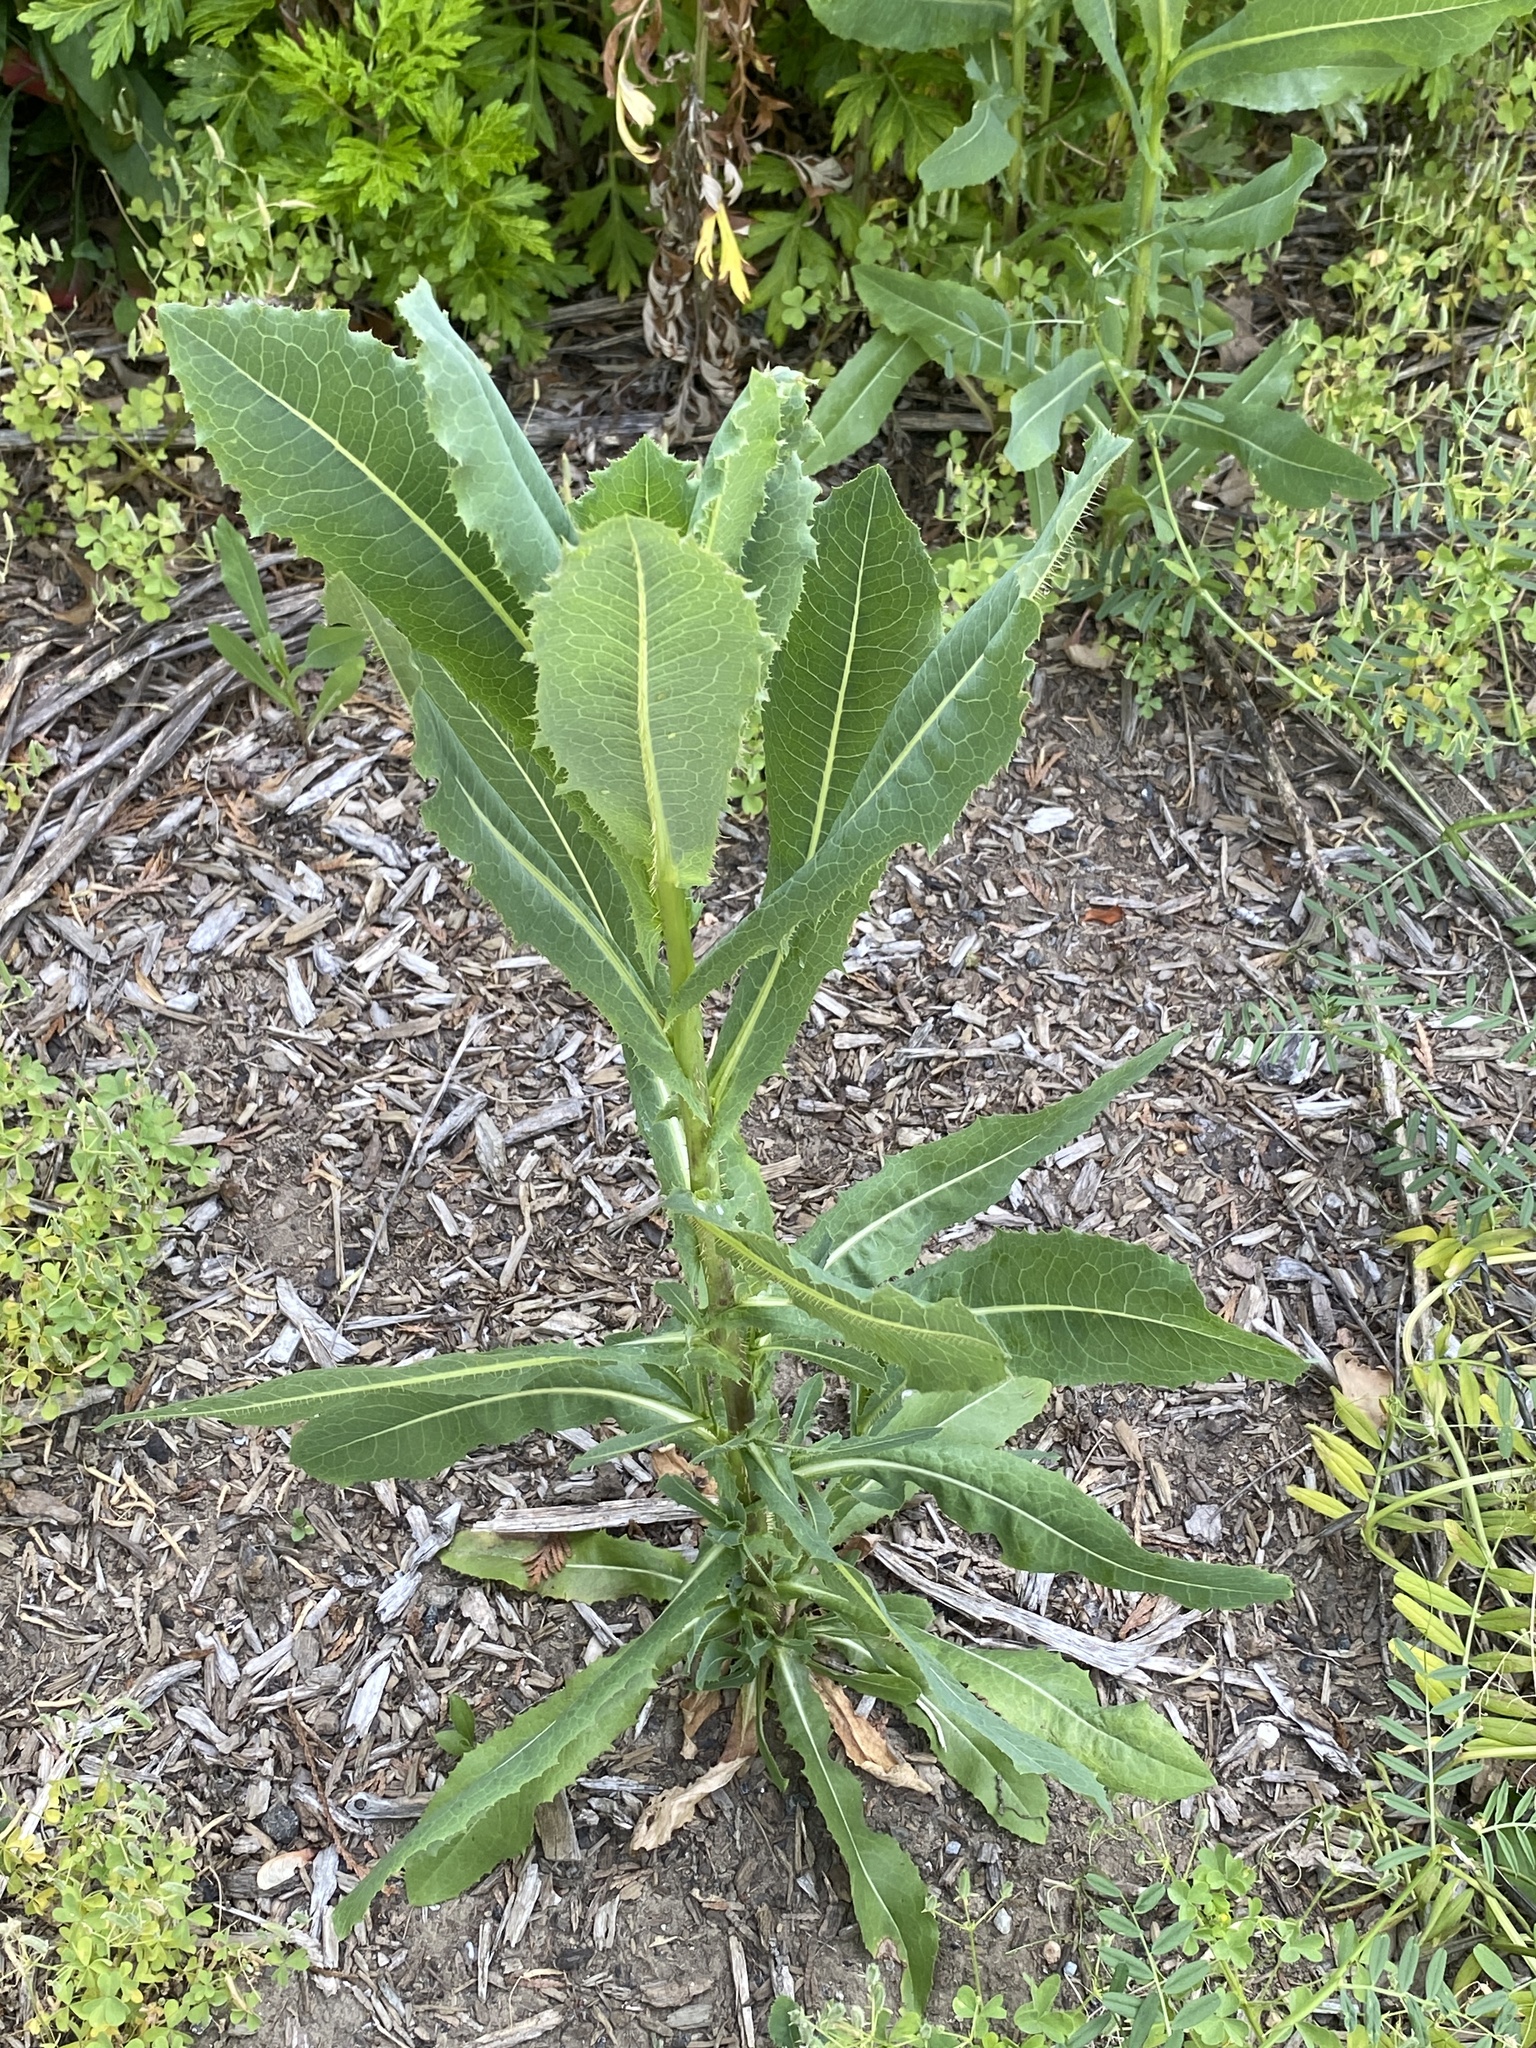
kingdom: Plantae
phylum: Tracheophyta
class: Magnoliopsida
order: Asterales
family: Asteraceae
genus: Lactuca
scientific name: Lactuca serriola
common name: Prickly lettuce
